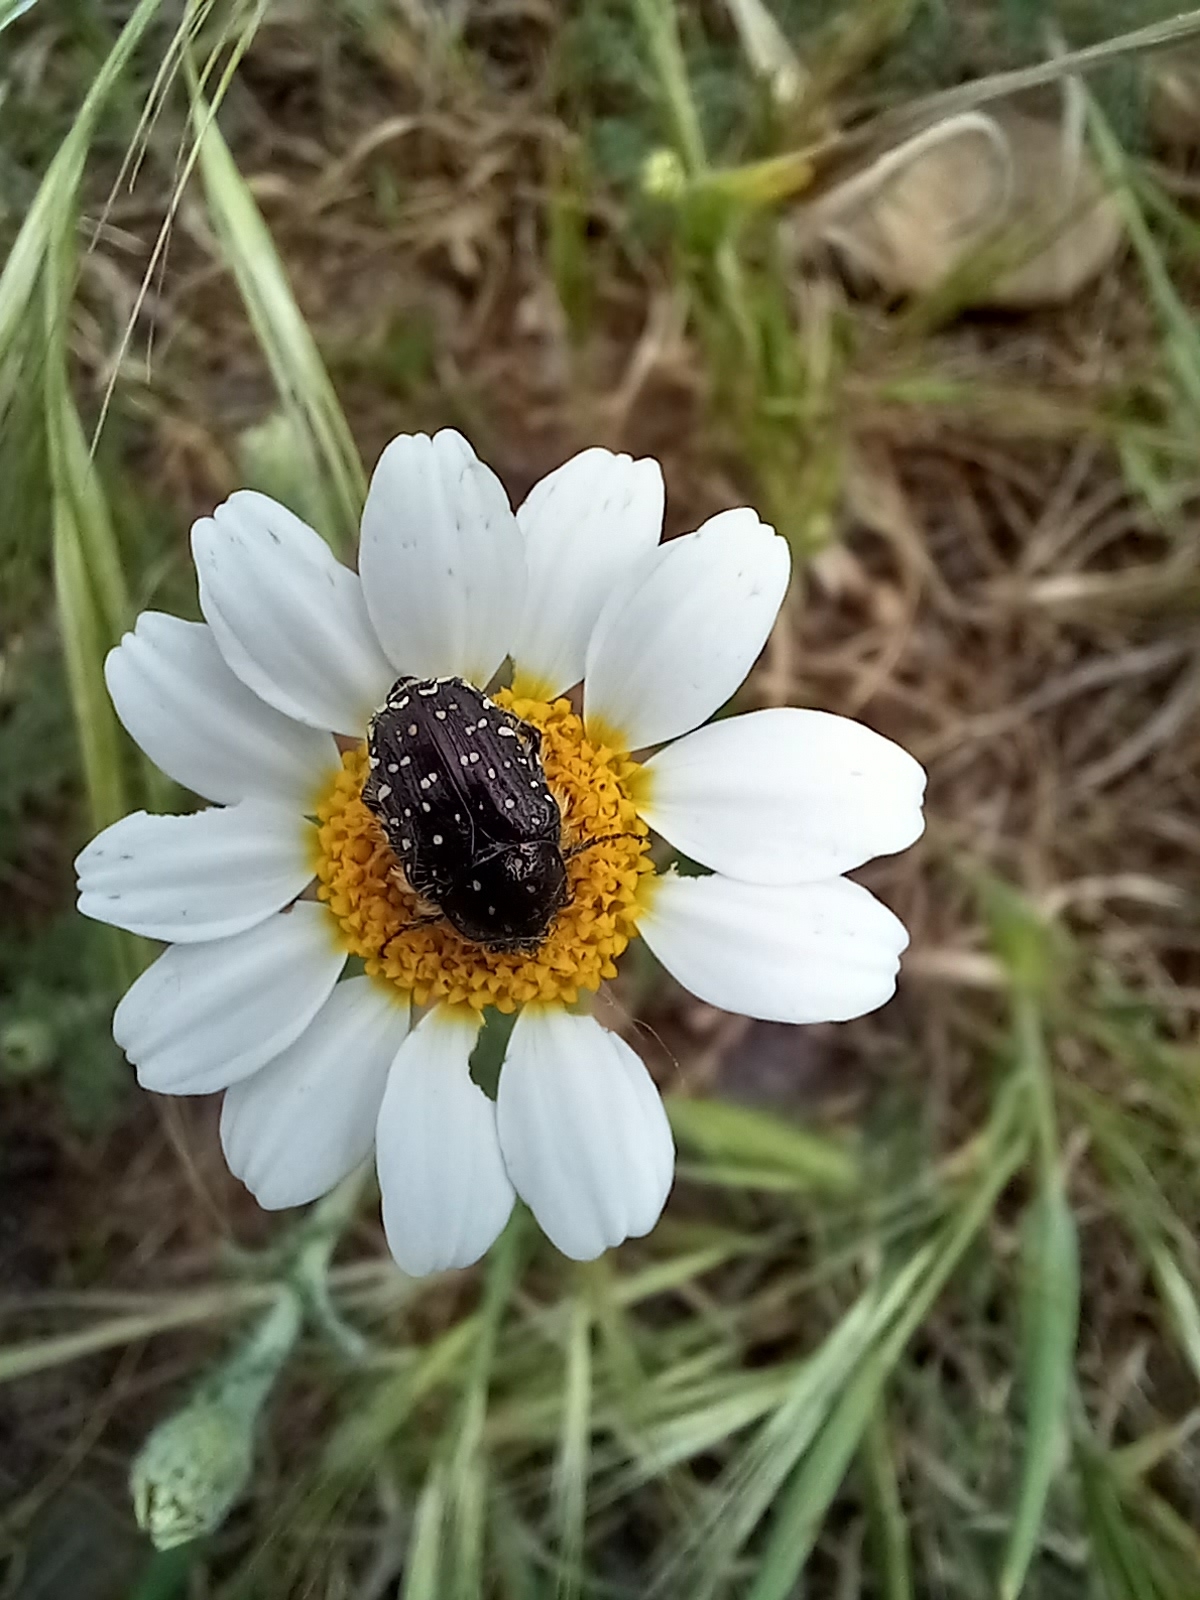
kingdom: Animalia
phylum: Arthropoda
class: Insecta
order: Coleoptera
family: Scarabaeidae
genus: Oxythyrea
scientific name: Oxythyrea funesta
